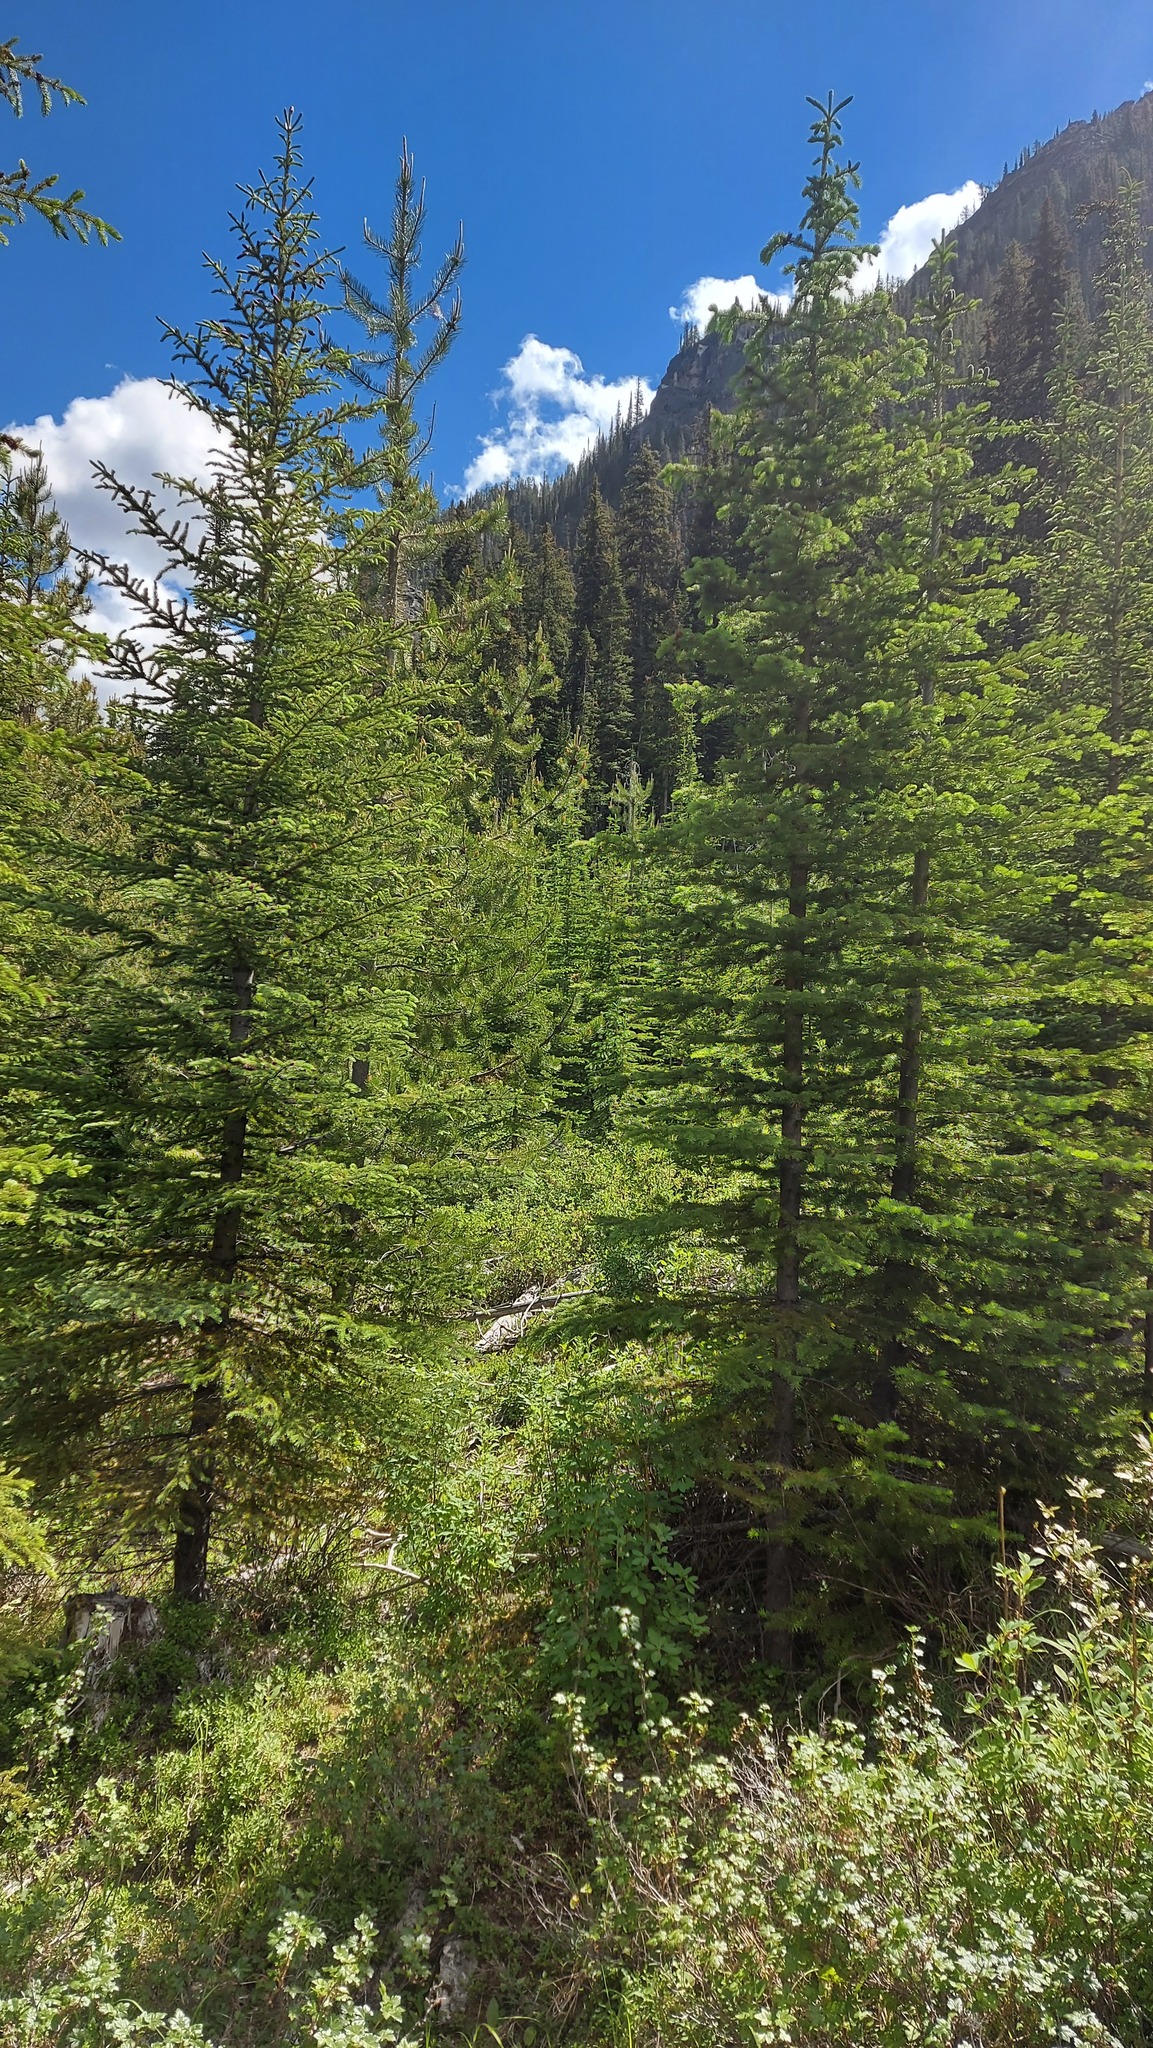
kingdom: Animalia
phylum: Chordata
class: Aves
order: Passeriformes
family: Passerellidae
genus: Passerella
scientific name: Passerella iliaca
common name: Fox sparrow
